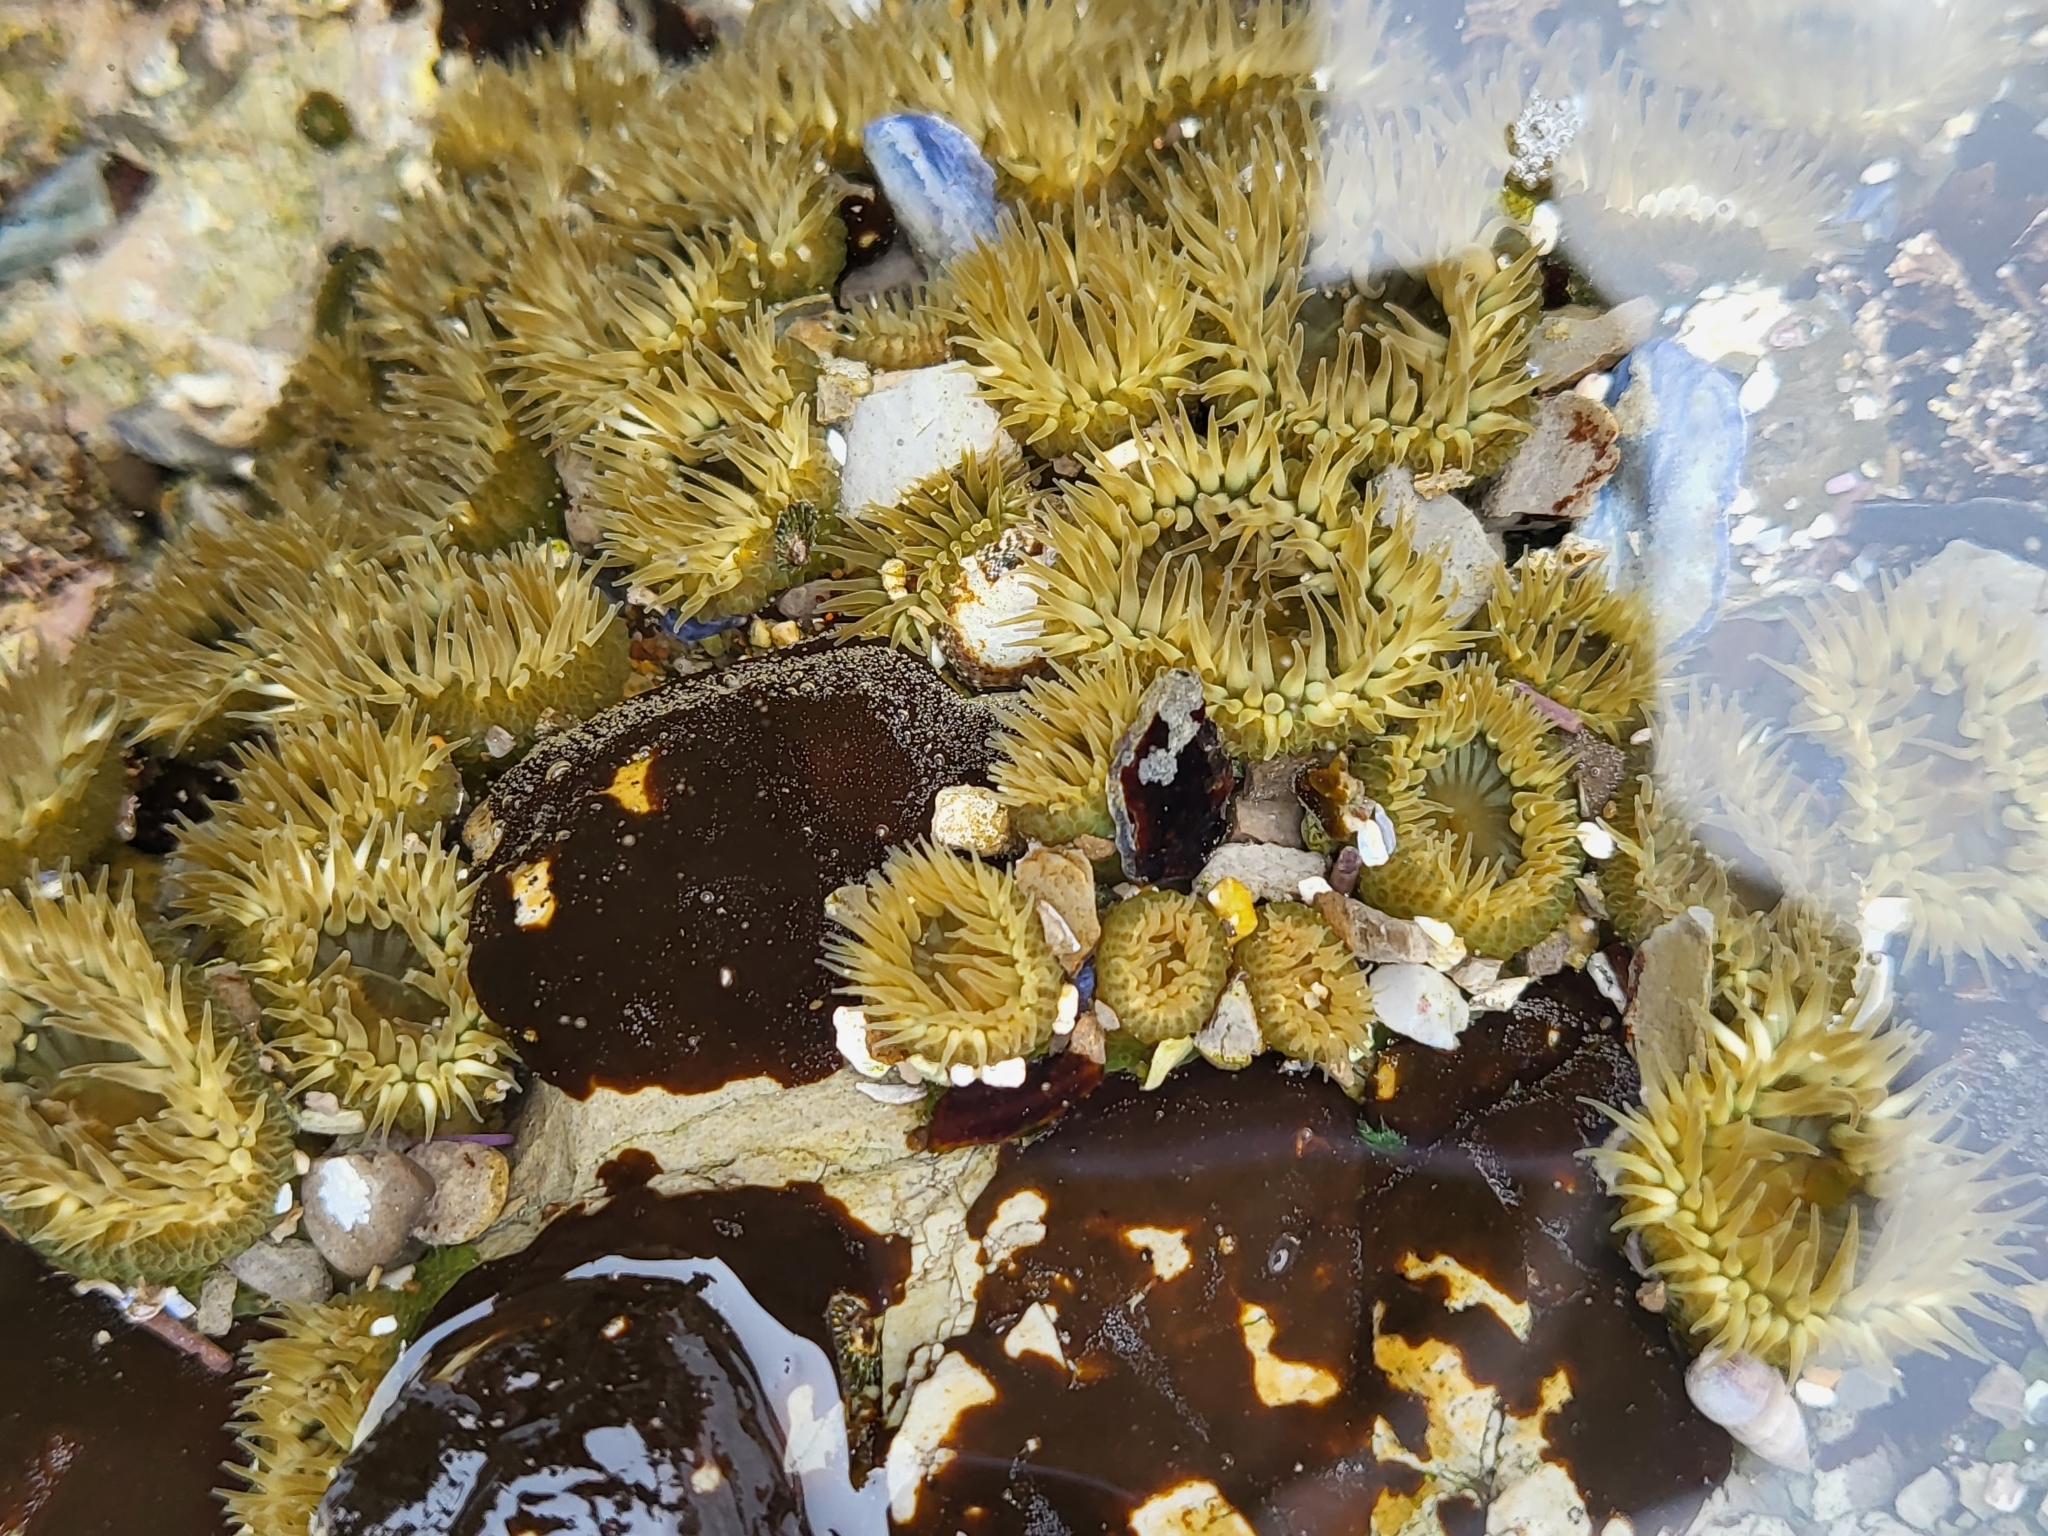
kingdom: Animalia
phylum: Cnidaria
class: Anthozoa
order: Actiniaria
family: Actiniidae
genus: Anthopleura
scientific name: Anthopleura elegantissima
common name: Clonal anemone
